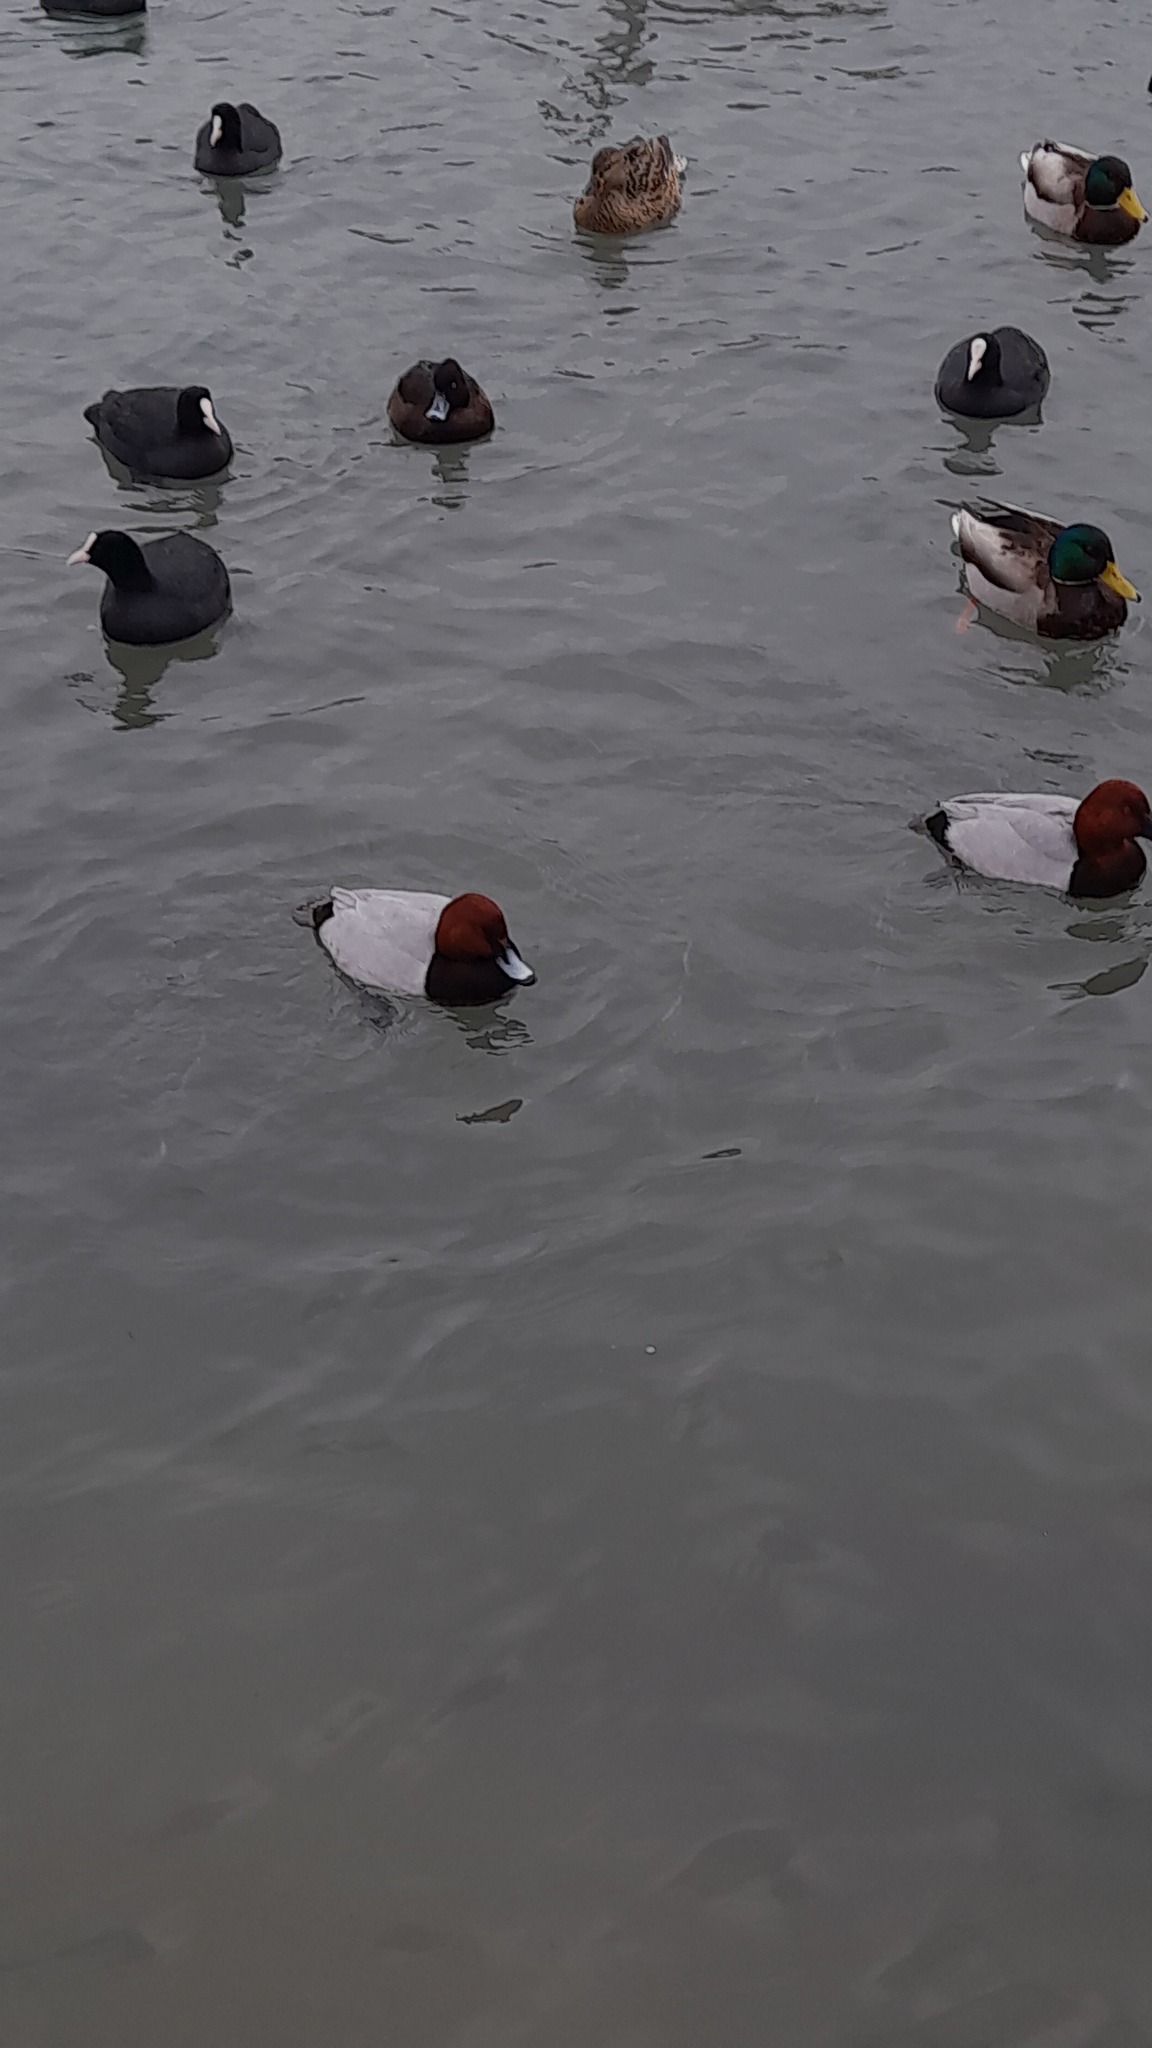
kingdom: Animalia
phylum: Chordata
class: Aves
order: Anseriformes
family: Anatidae
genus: Aythya
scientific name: Aythya ferina
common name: Common pochard
